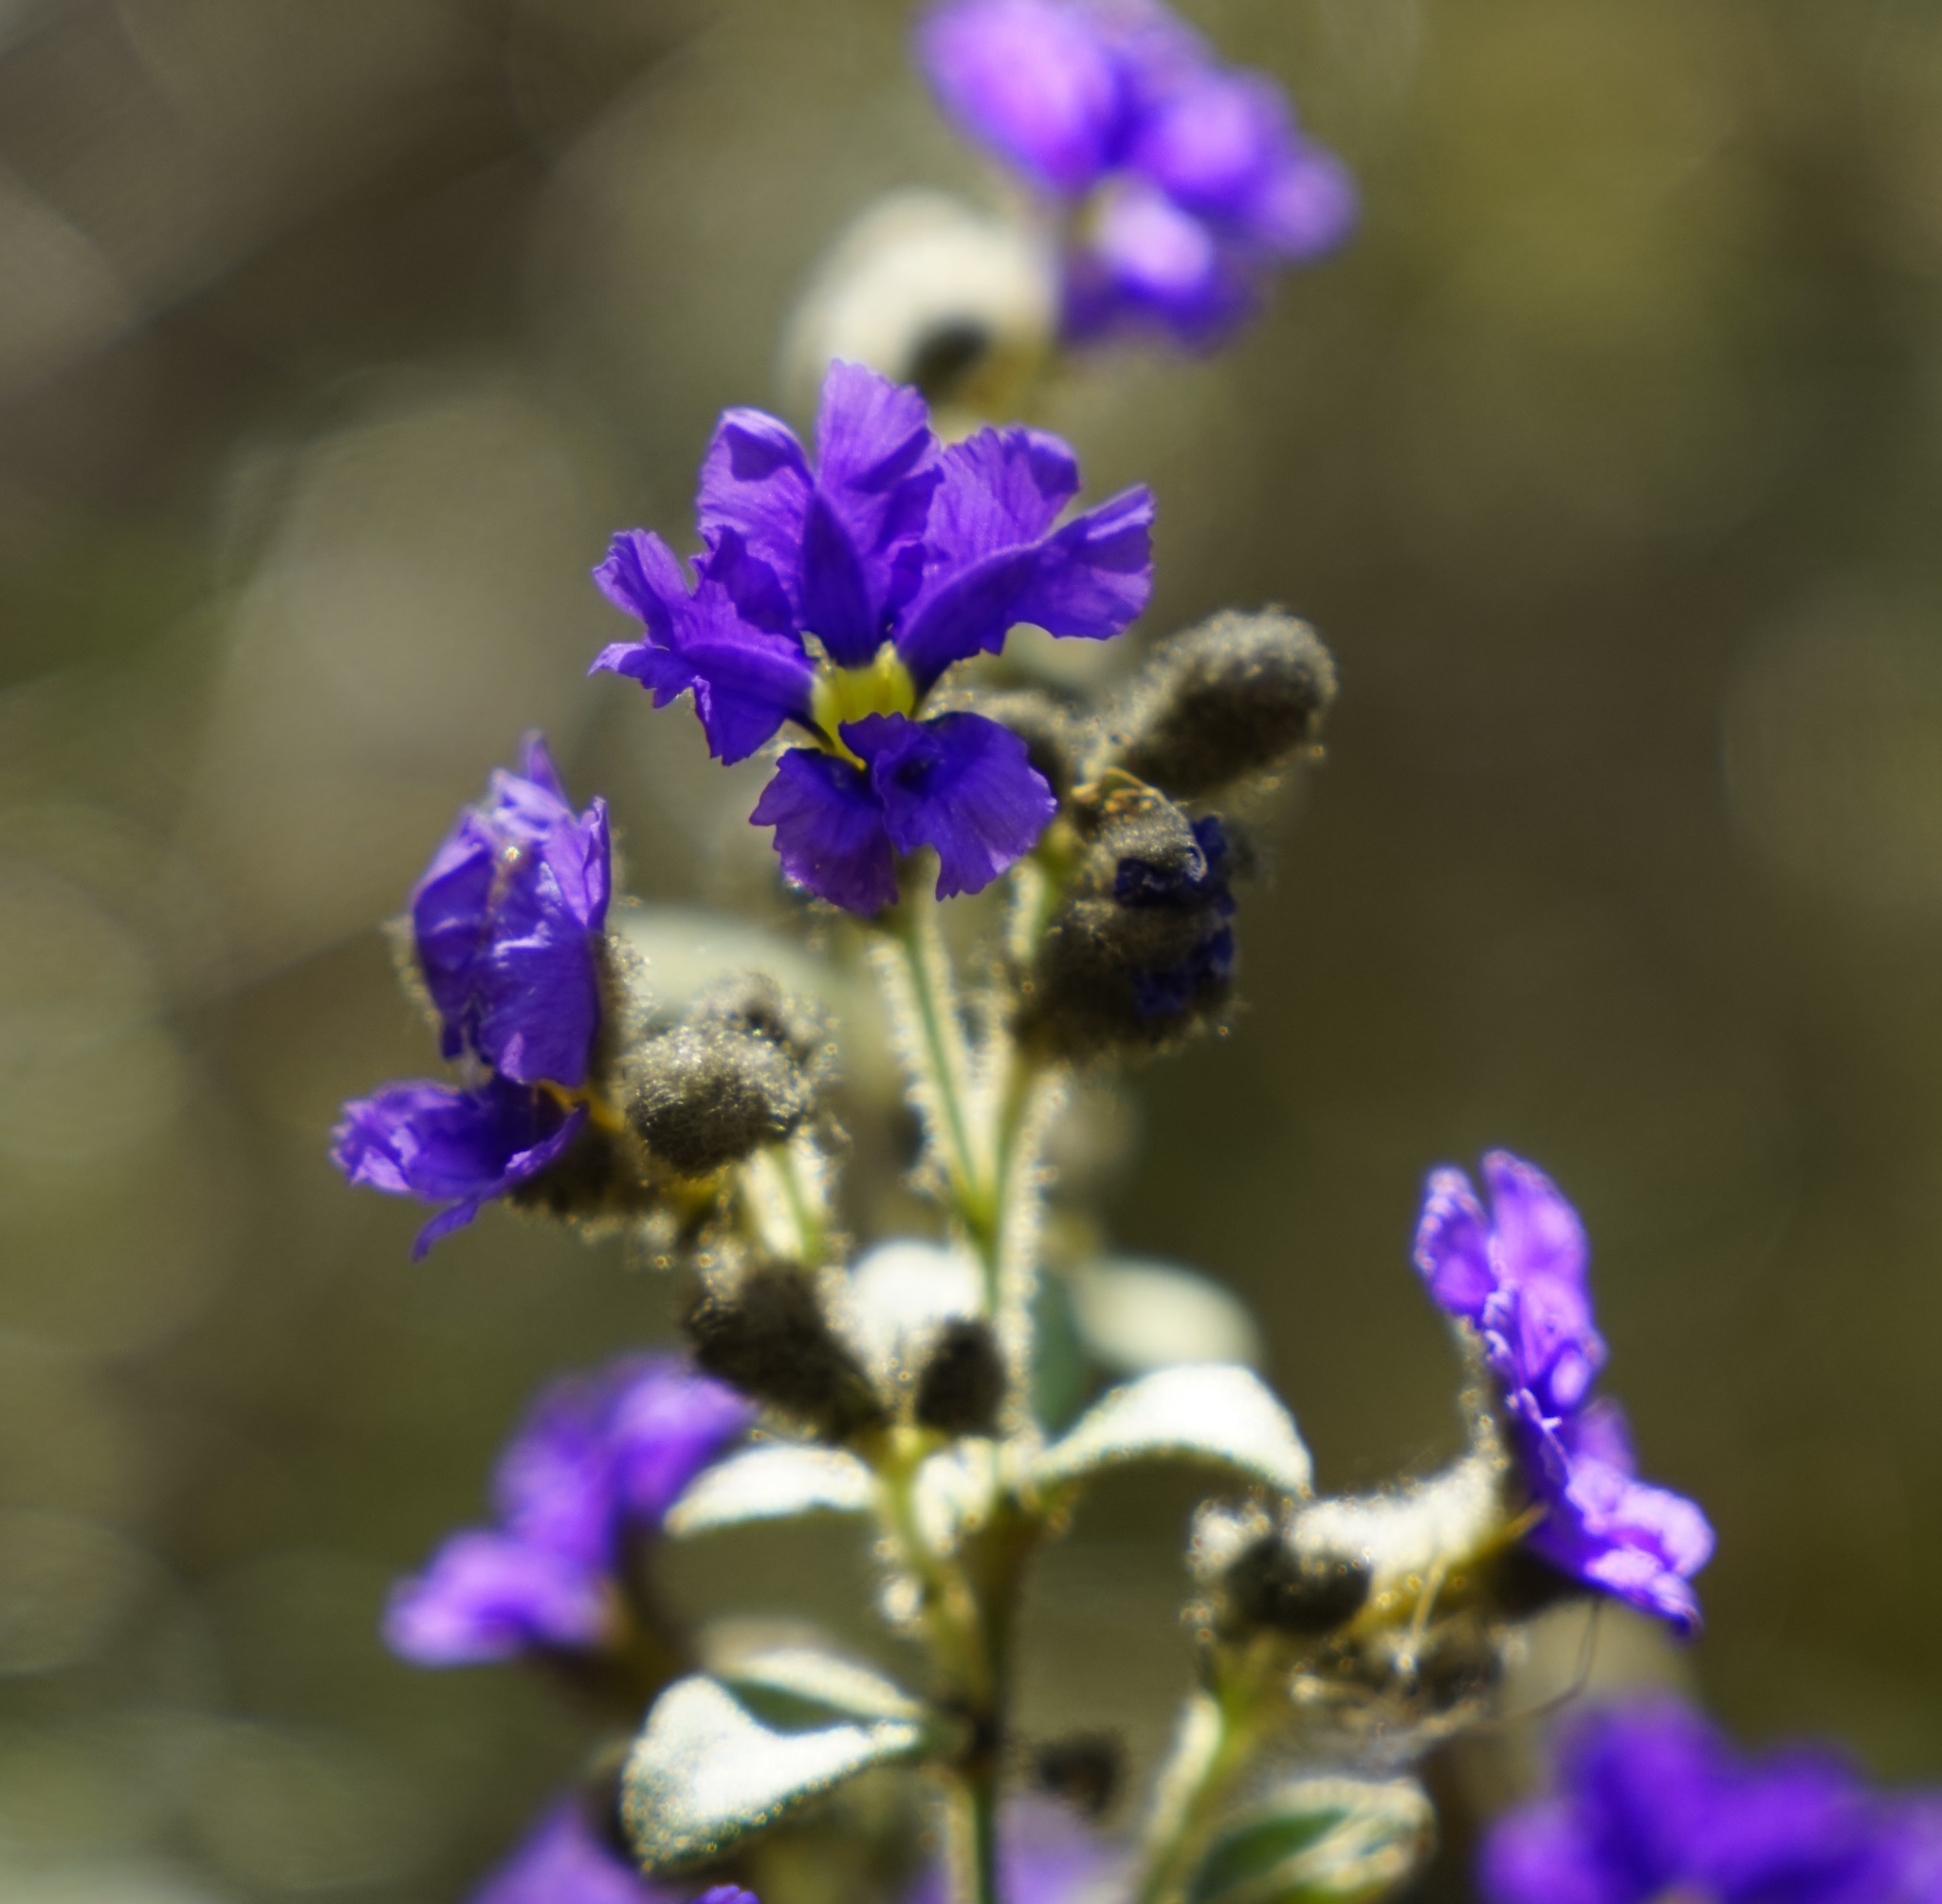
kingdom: Plantae
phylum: Tracheophyta
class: Magnoliopsida
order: Asterales
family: Goodeniaceae
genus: Dampiera
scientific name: Dampiera purpurea
